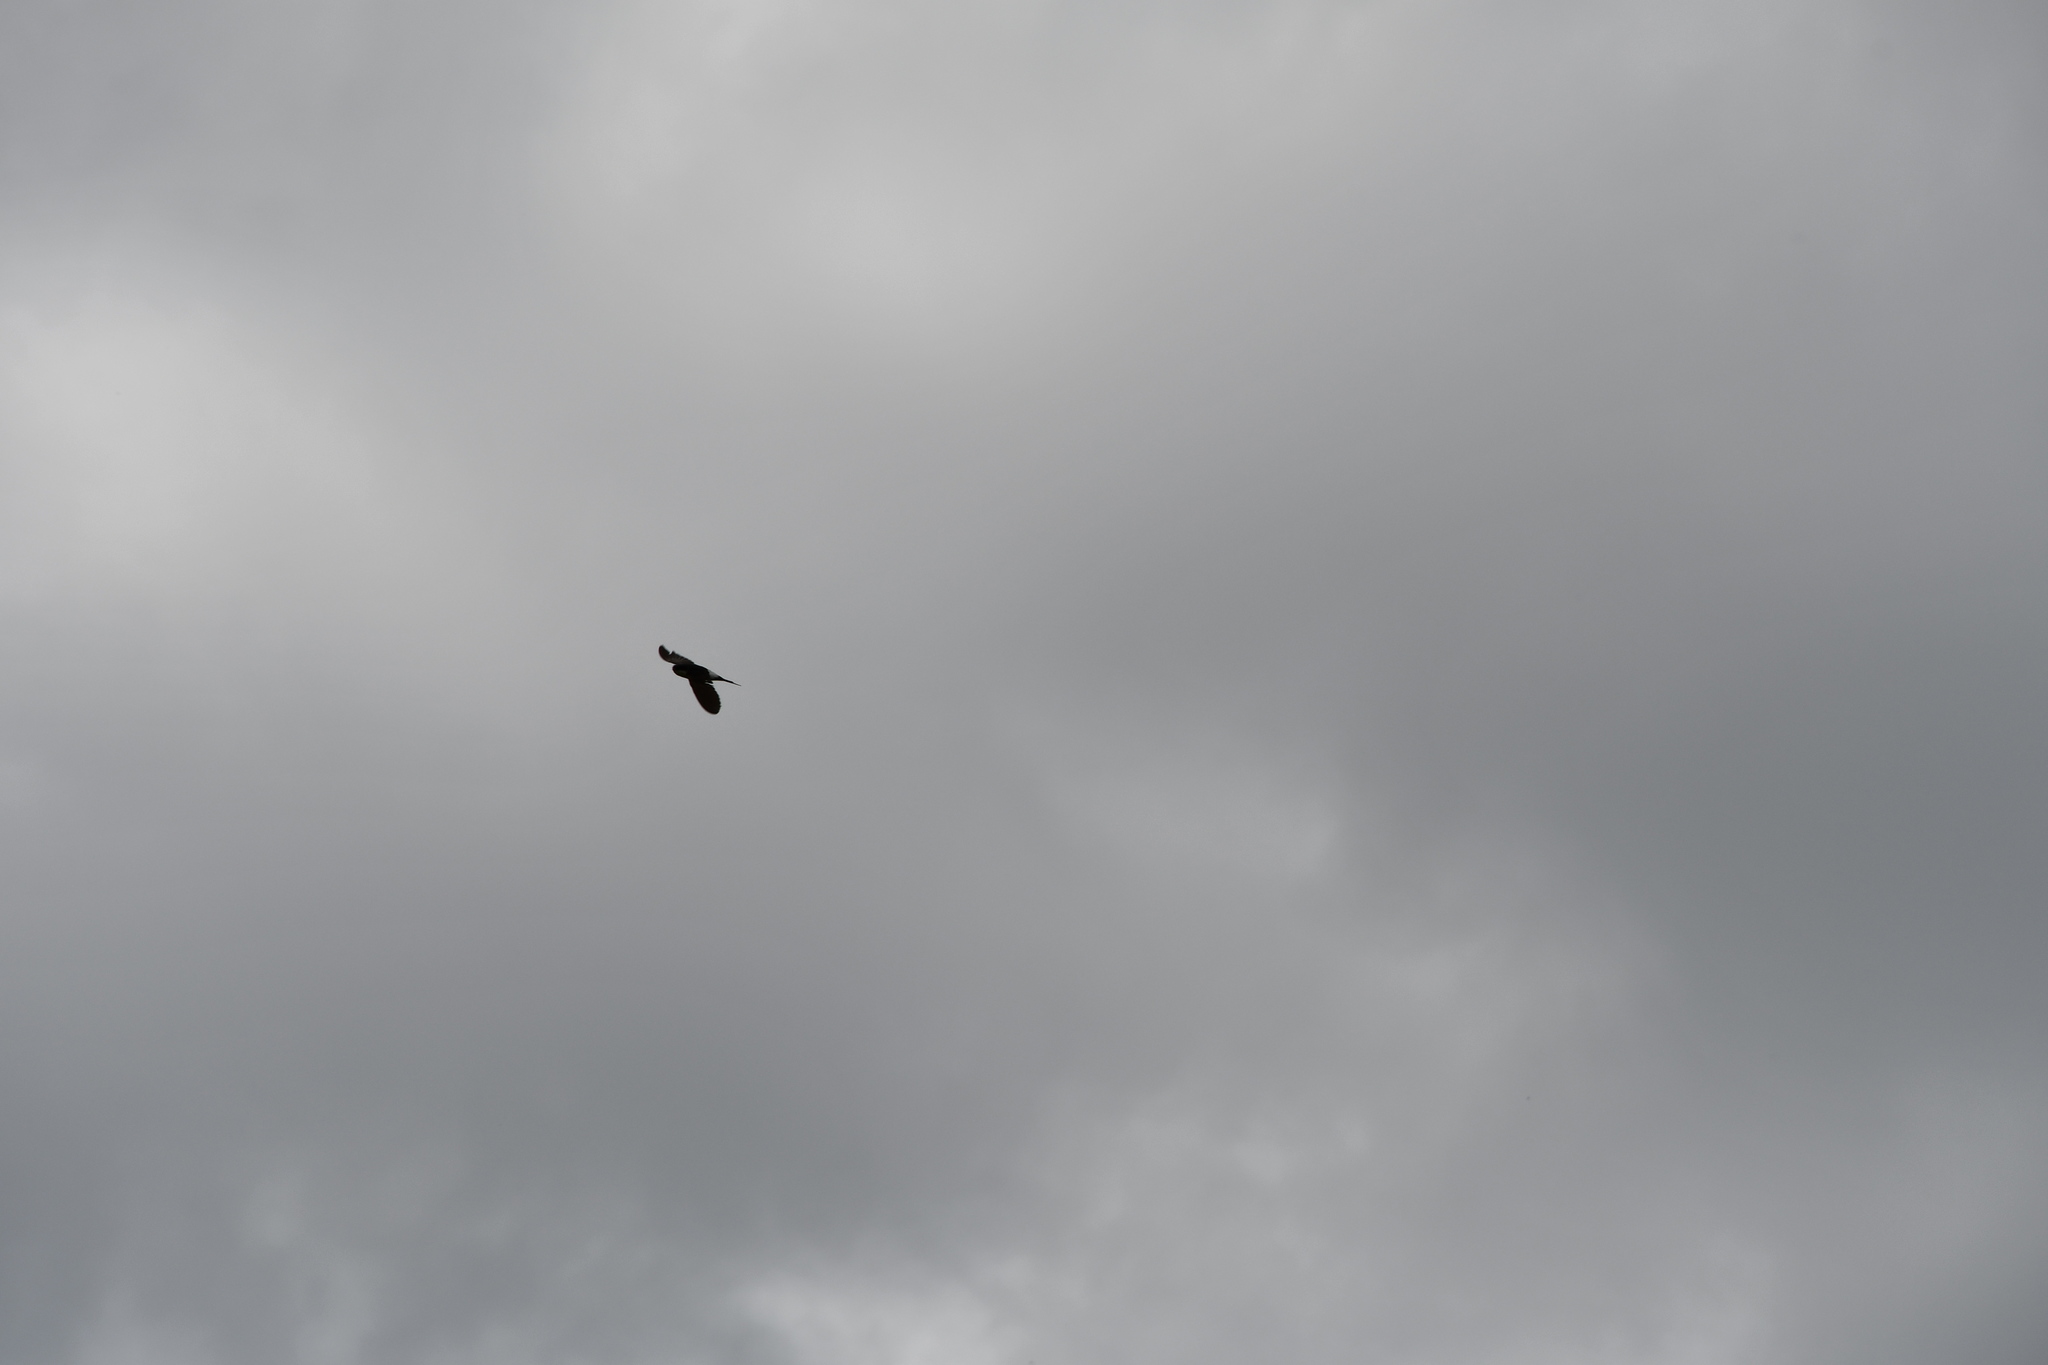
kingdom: Animalia
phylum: Chordata
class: Aves
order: Passeriformes
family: Hirundinidae
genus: Delichon
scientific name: Delichon urbicum
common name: Common house martin
